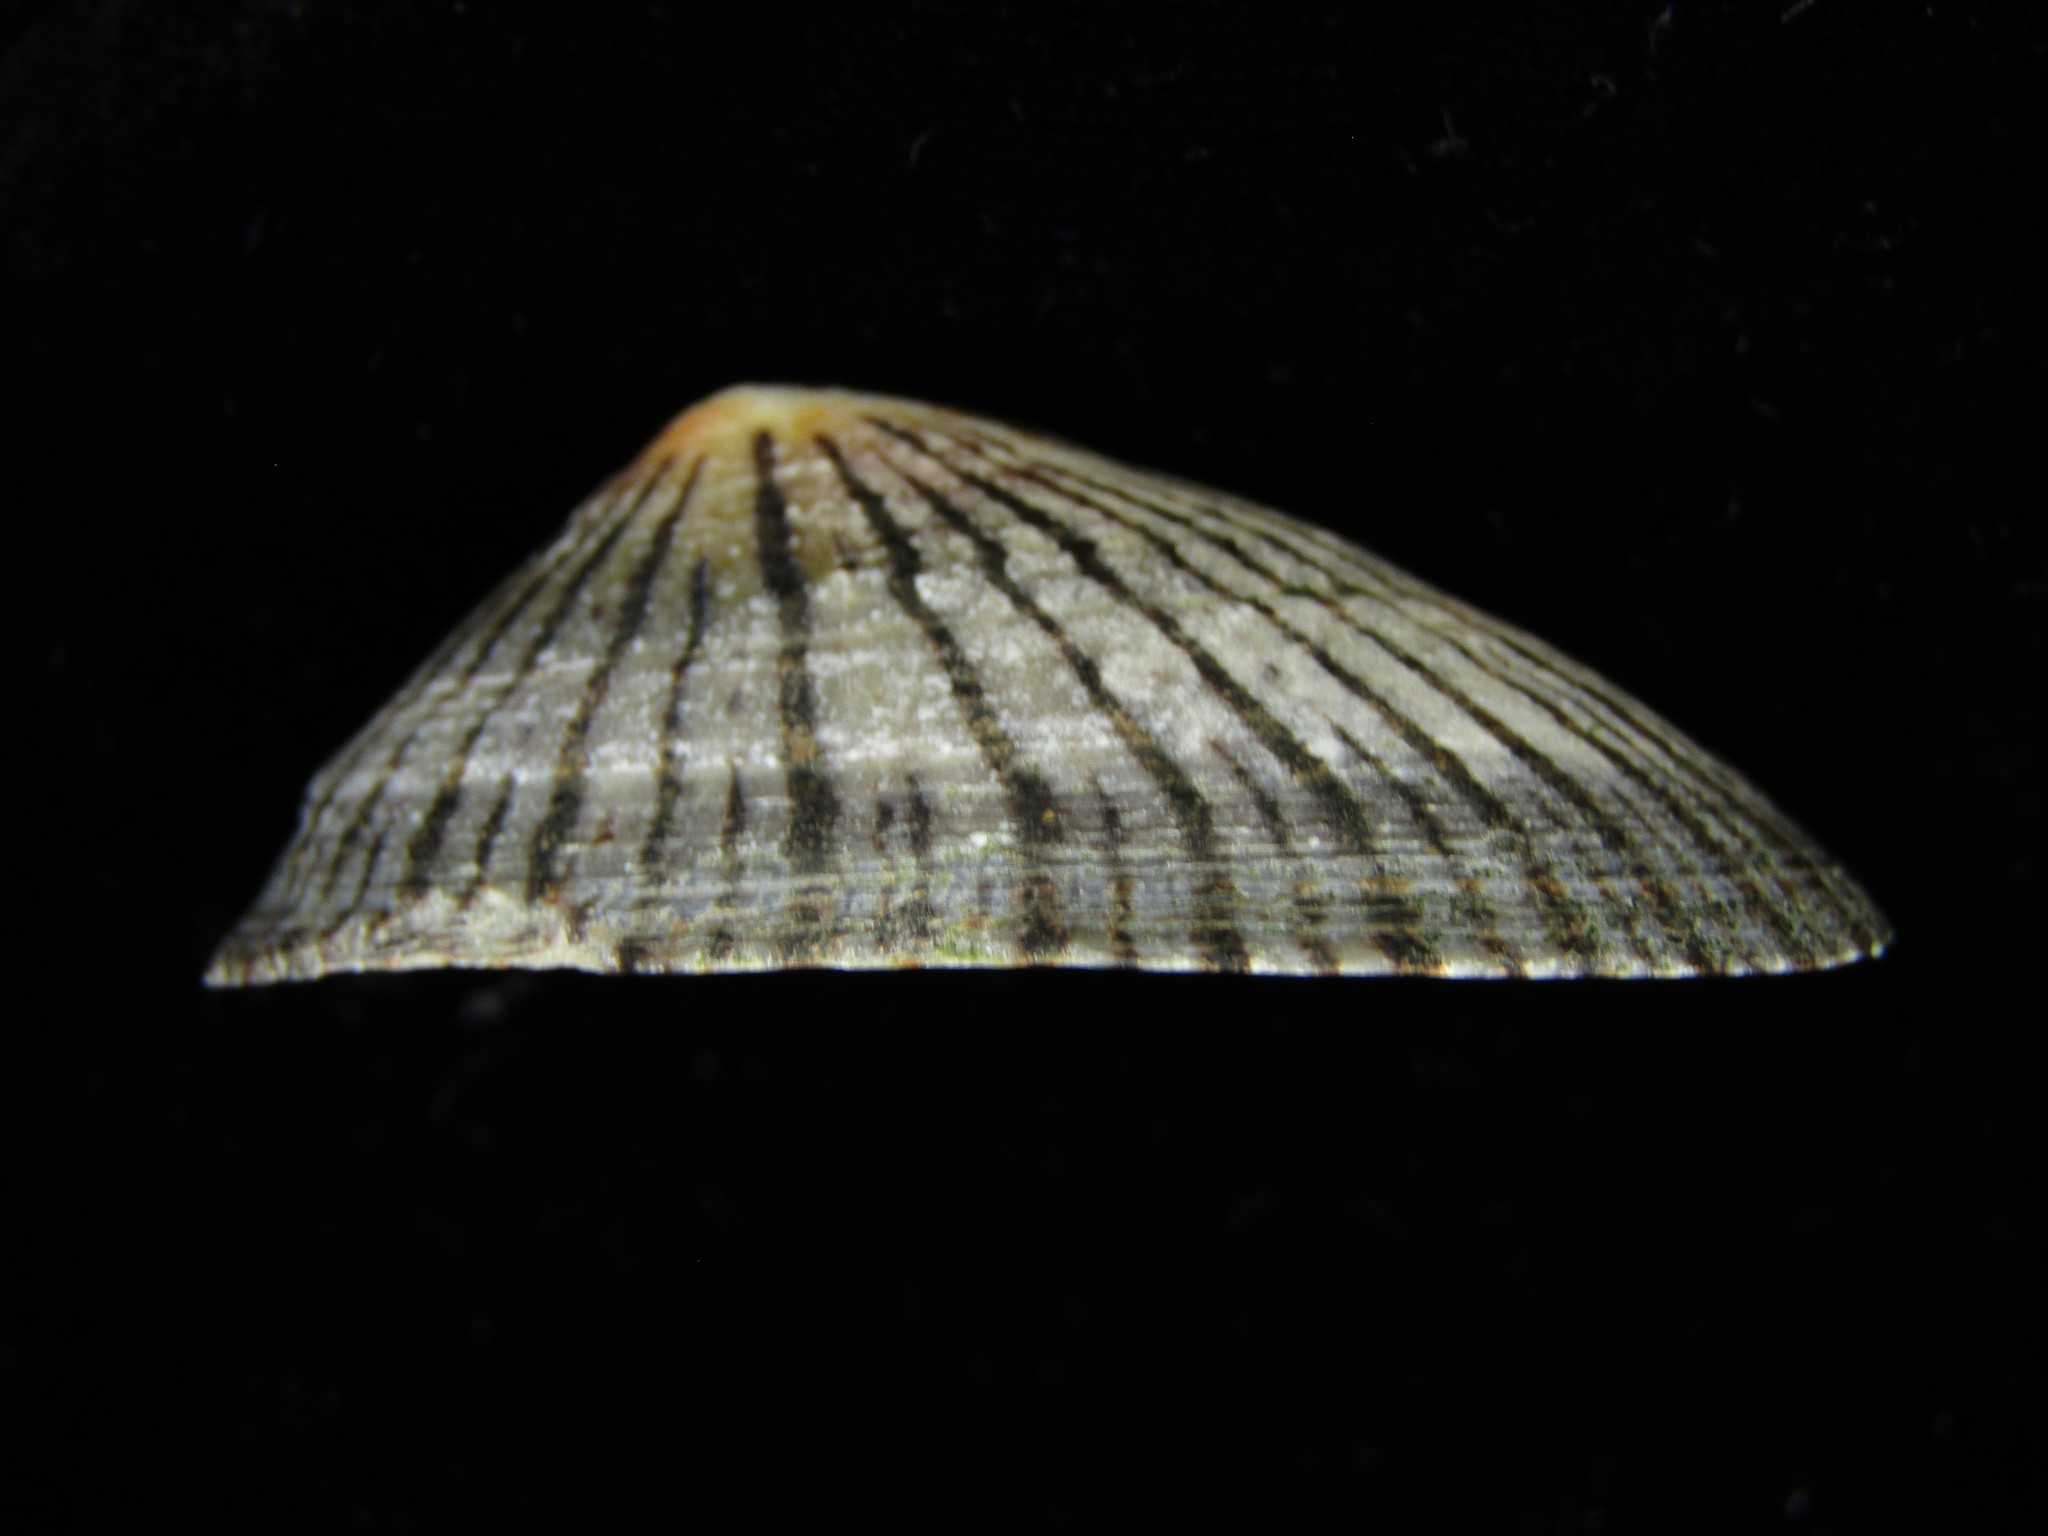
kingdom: Animalia
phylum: Mollusca
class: Gastropoda
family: Nacellidae
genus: Cellana
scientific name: Cellana nigrolineata
